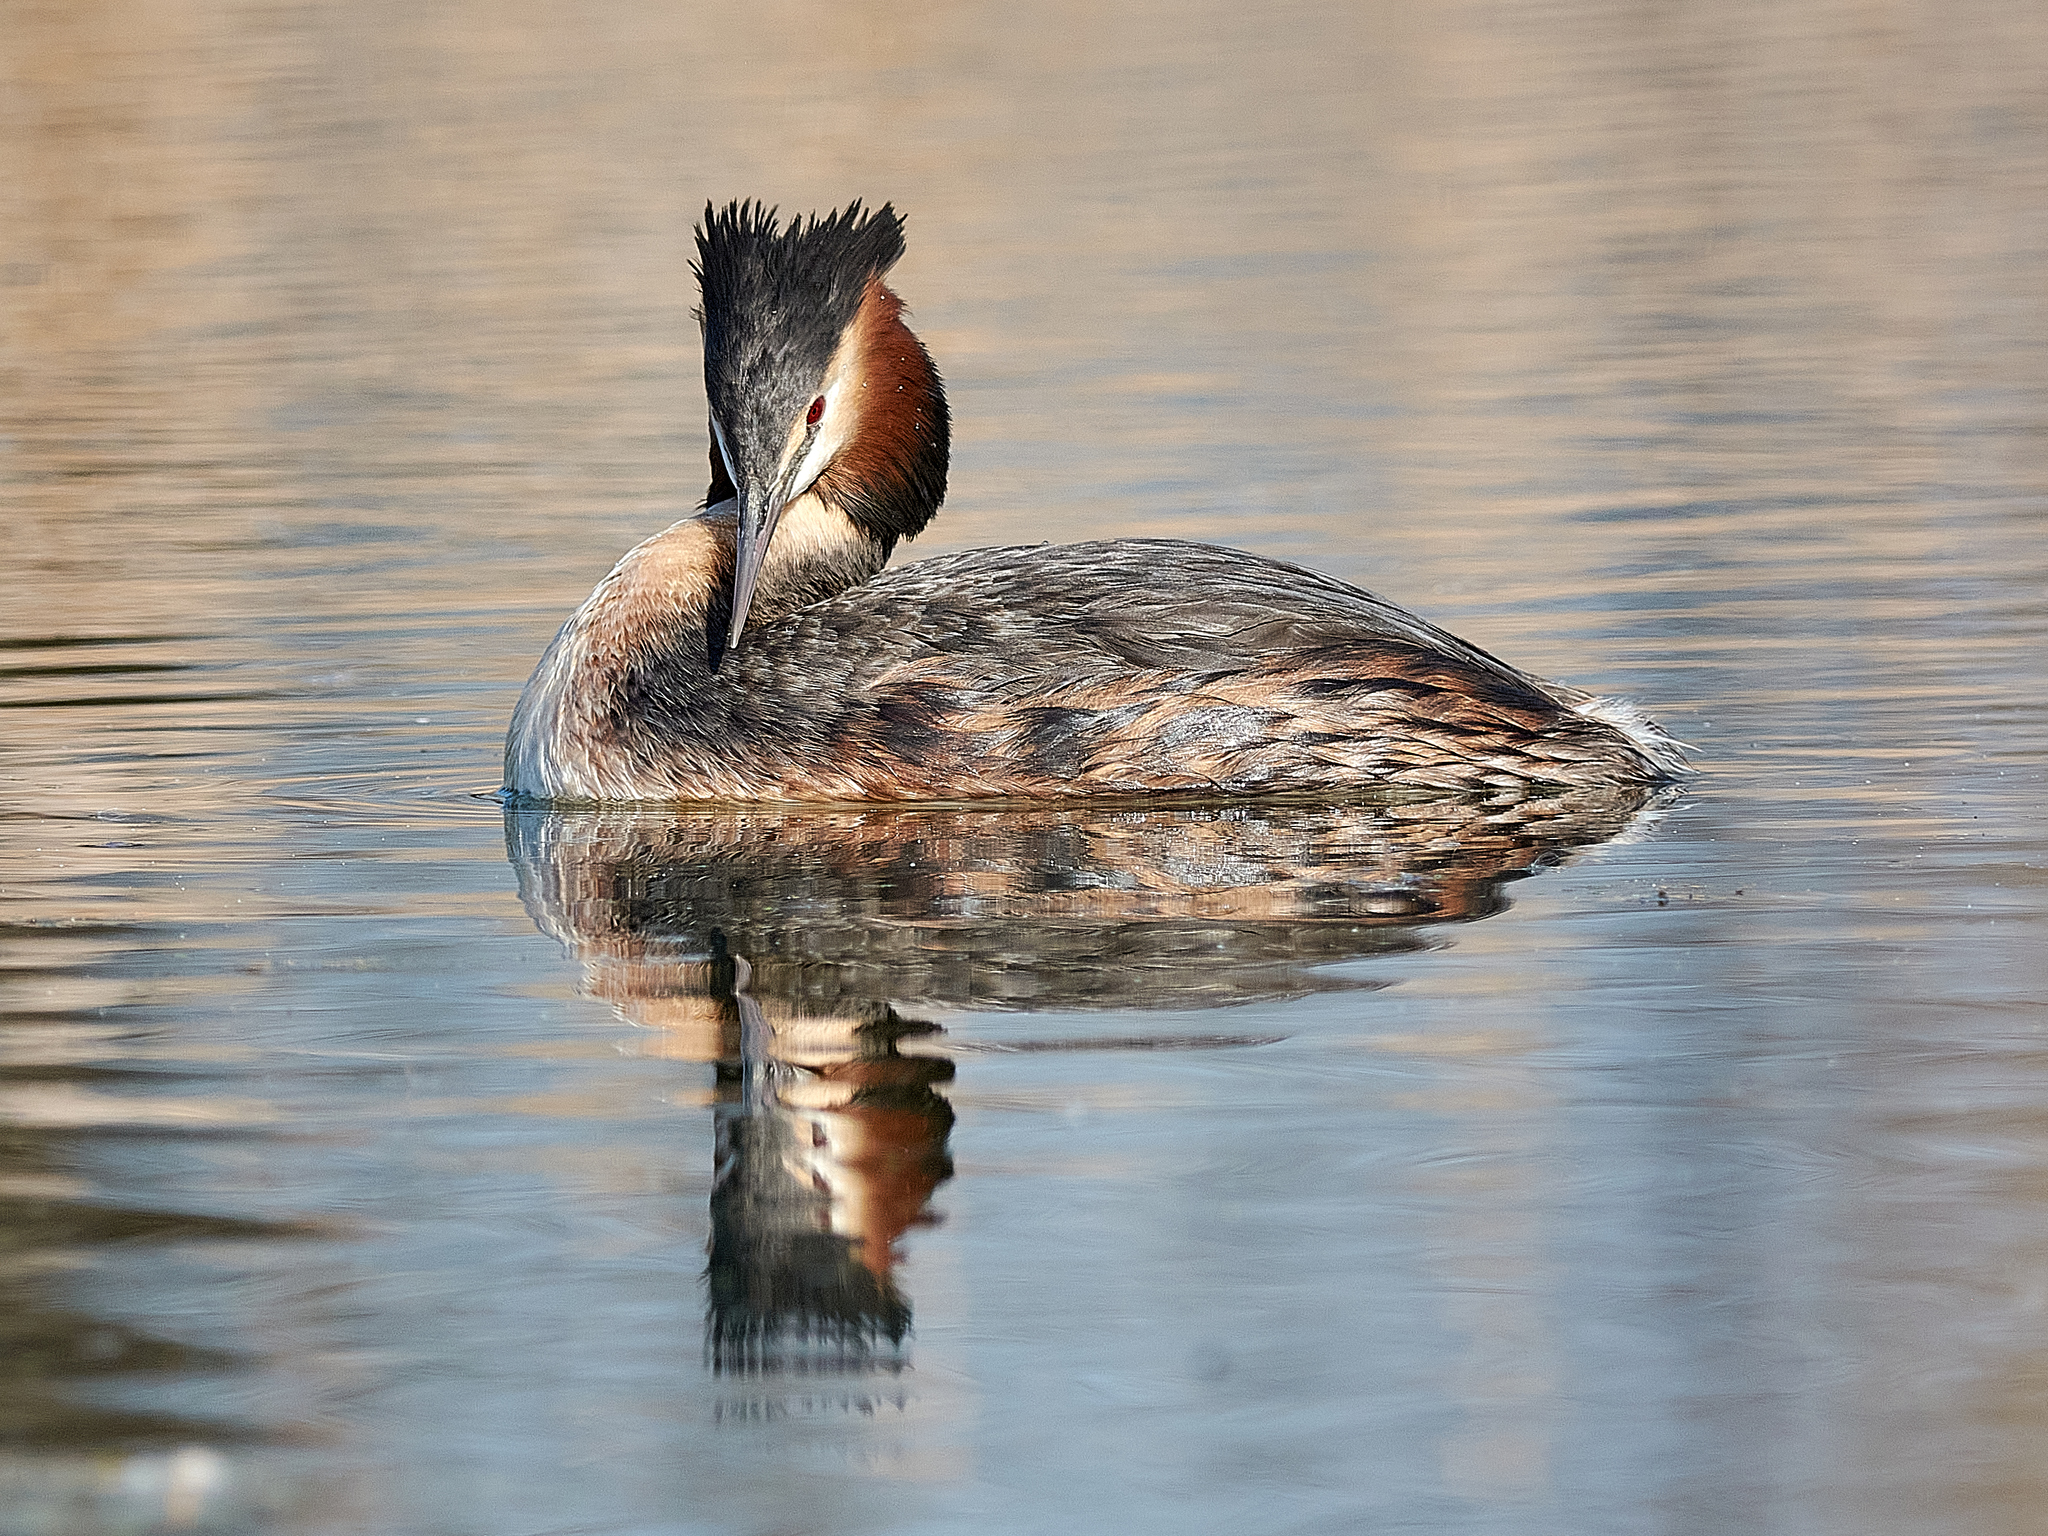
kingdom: Animalia
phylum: Chordata
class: Aves
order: Podicipediformes
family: Podicipedidae
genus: Podiceps
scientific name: Podiceps cristatus
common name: Great crested grebe
